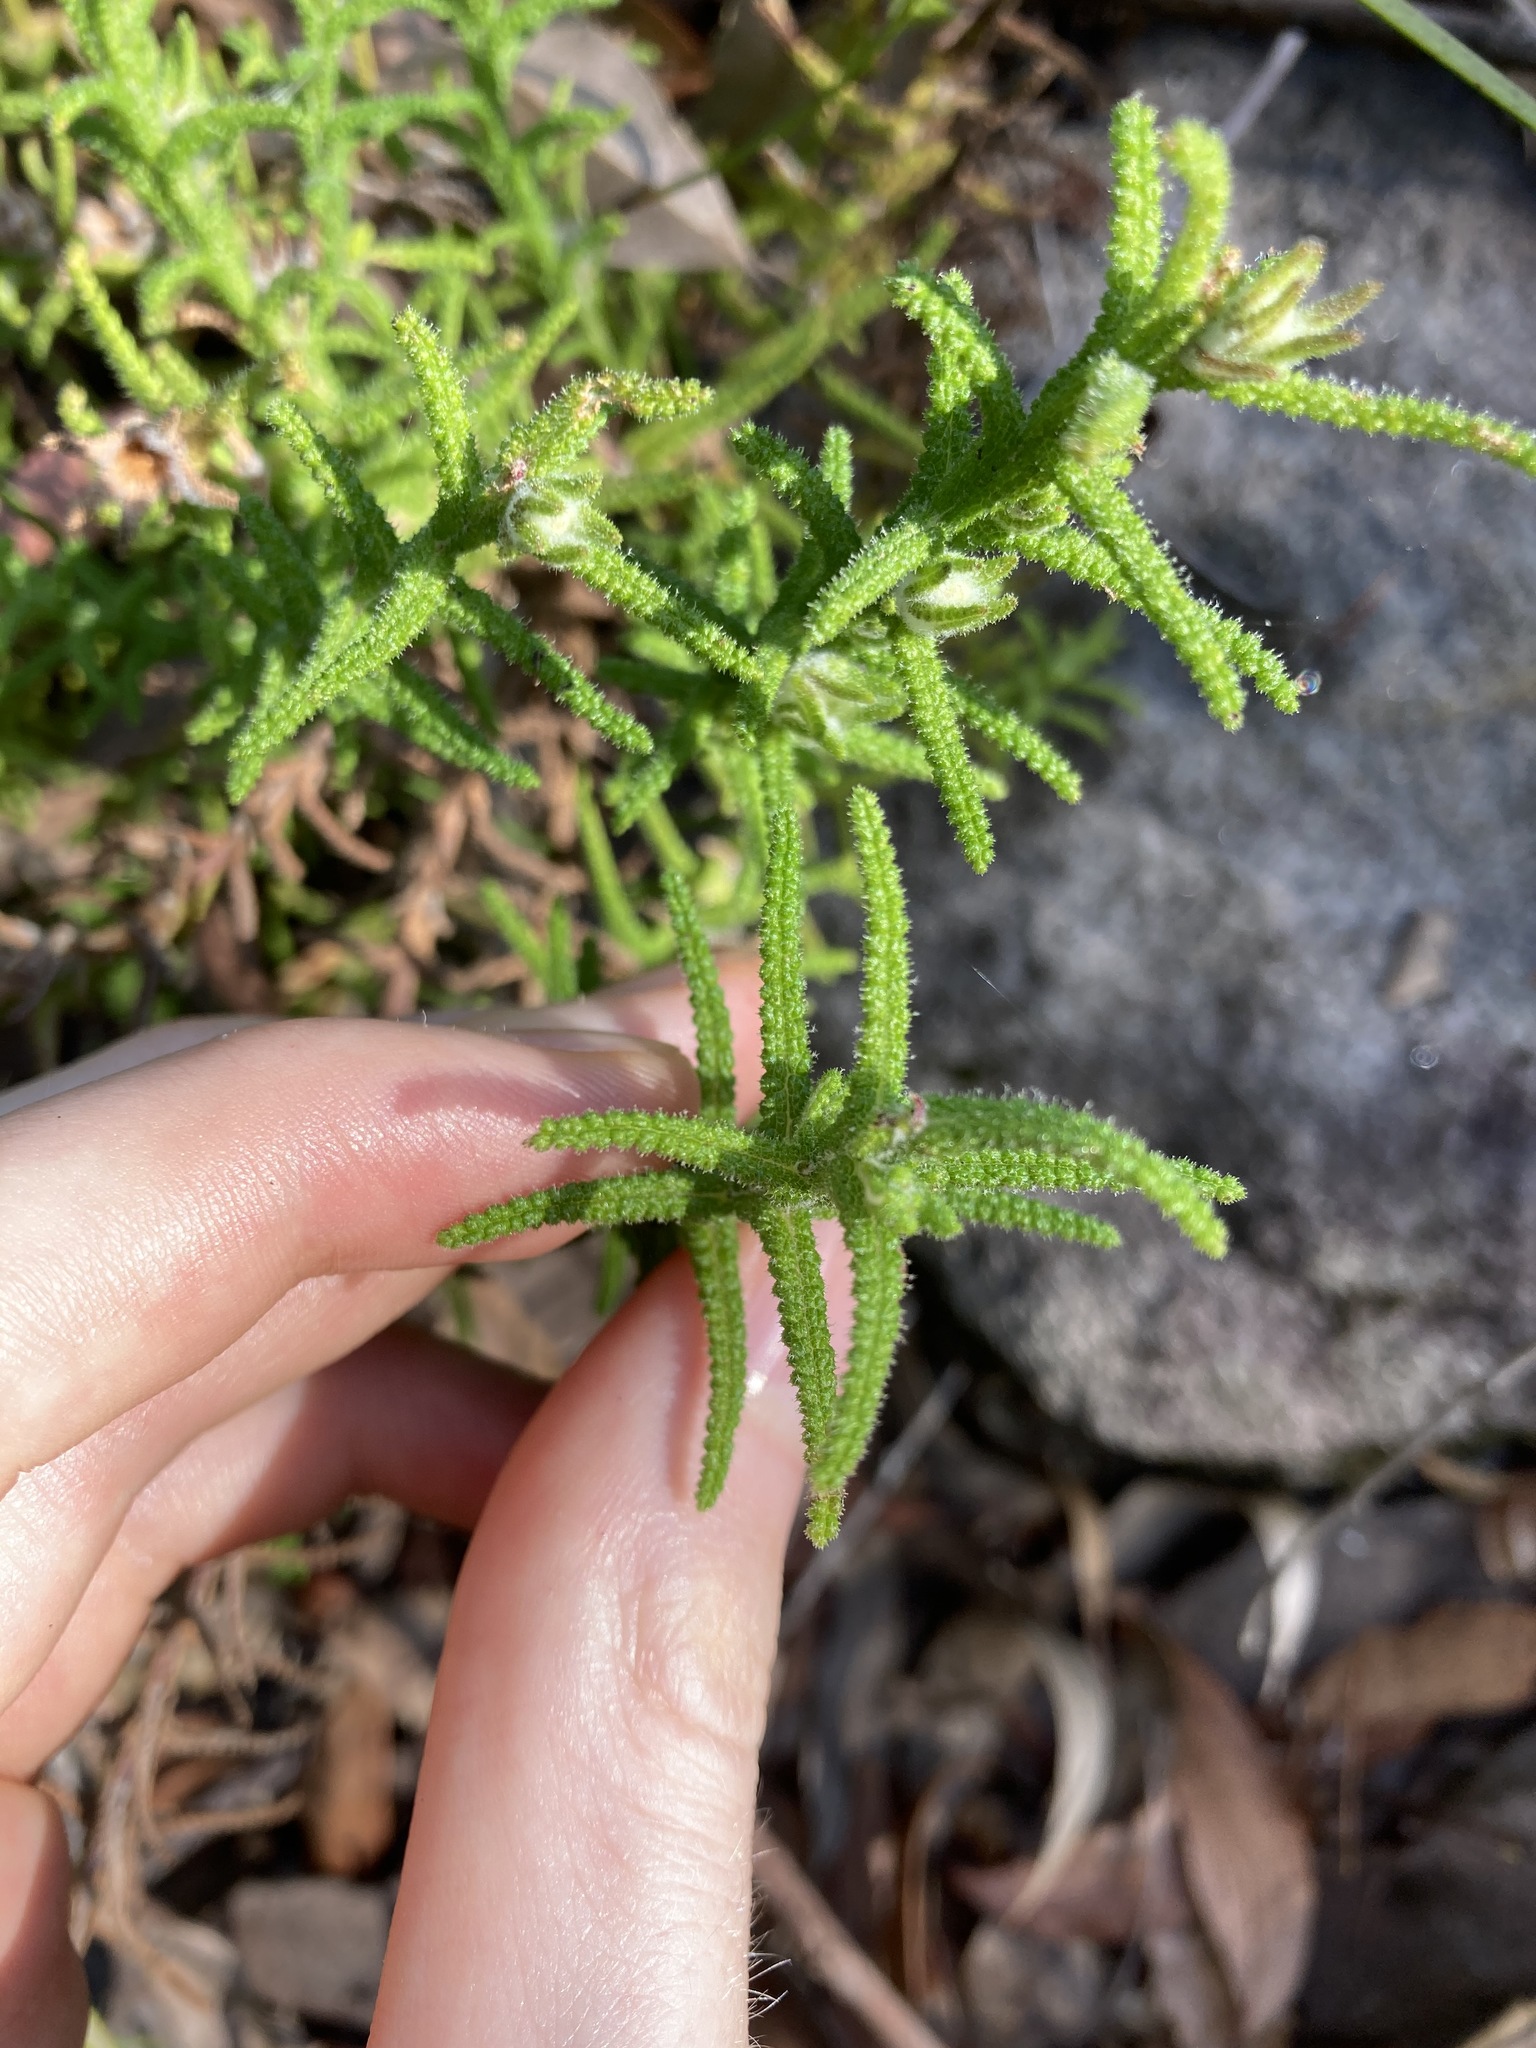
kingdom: Plantae
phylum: Tracheophyta
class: Magnoliopsida
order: Lamiales
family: Lamiaceae
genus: Chloanthes
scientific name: Chloanthes stoechadis
